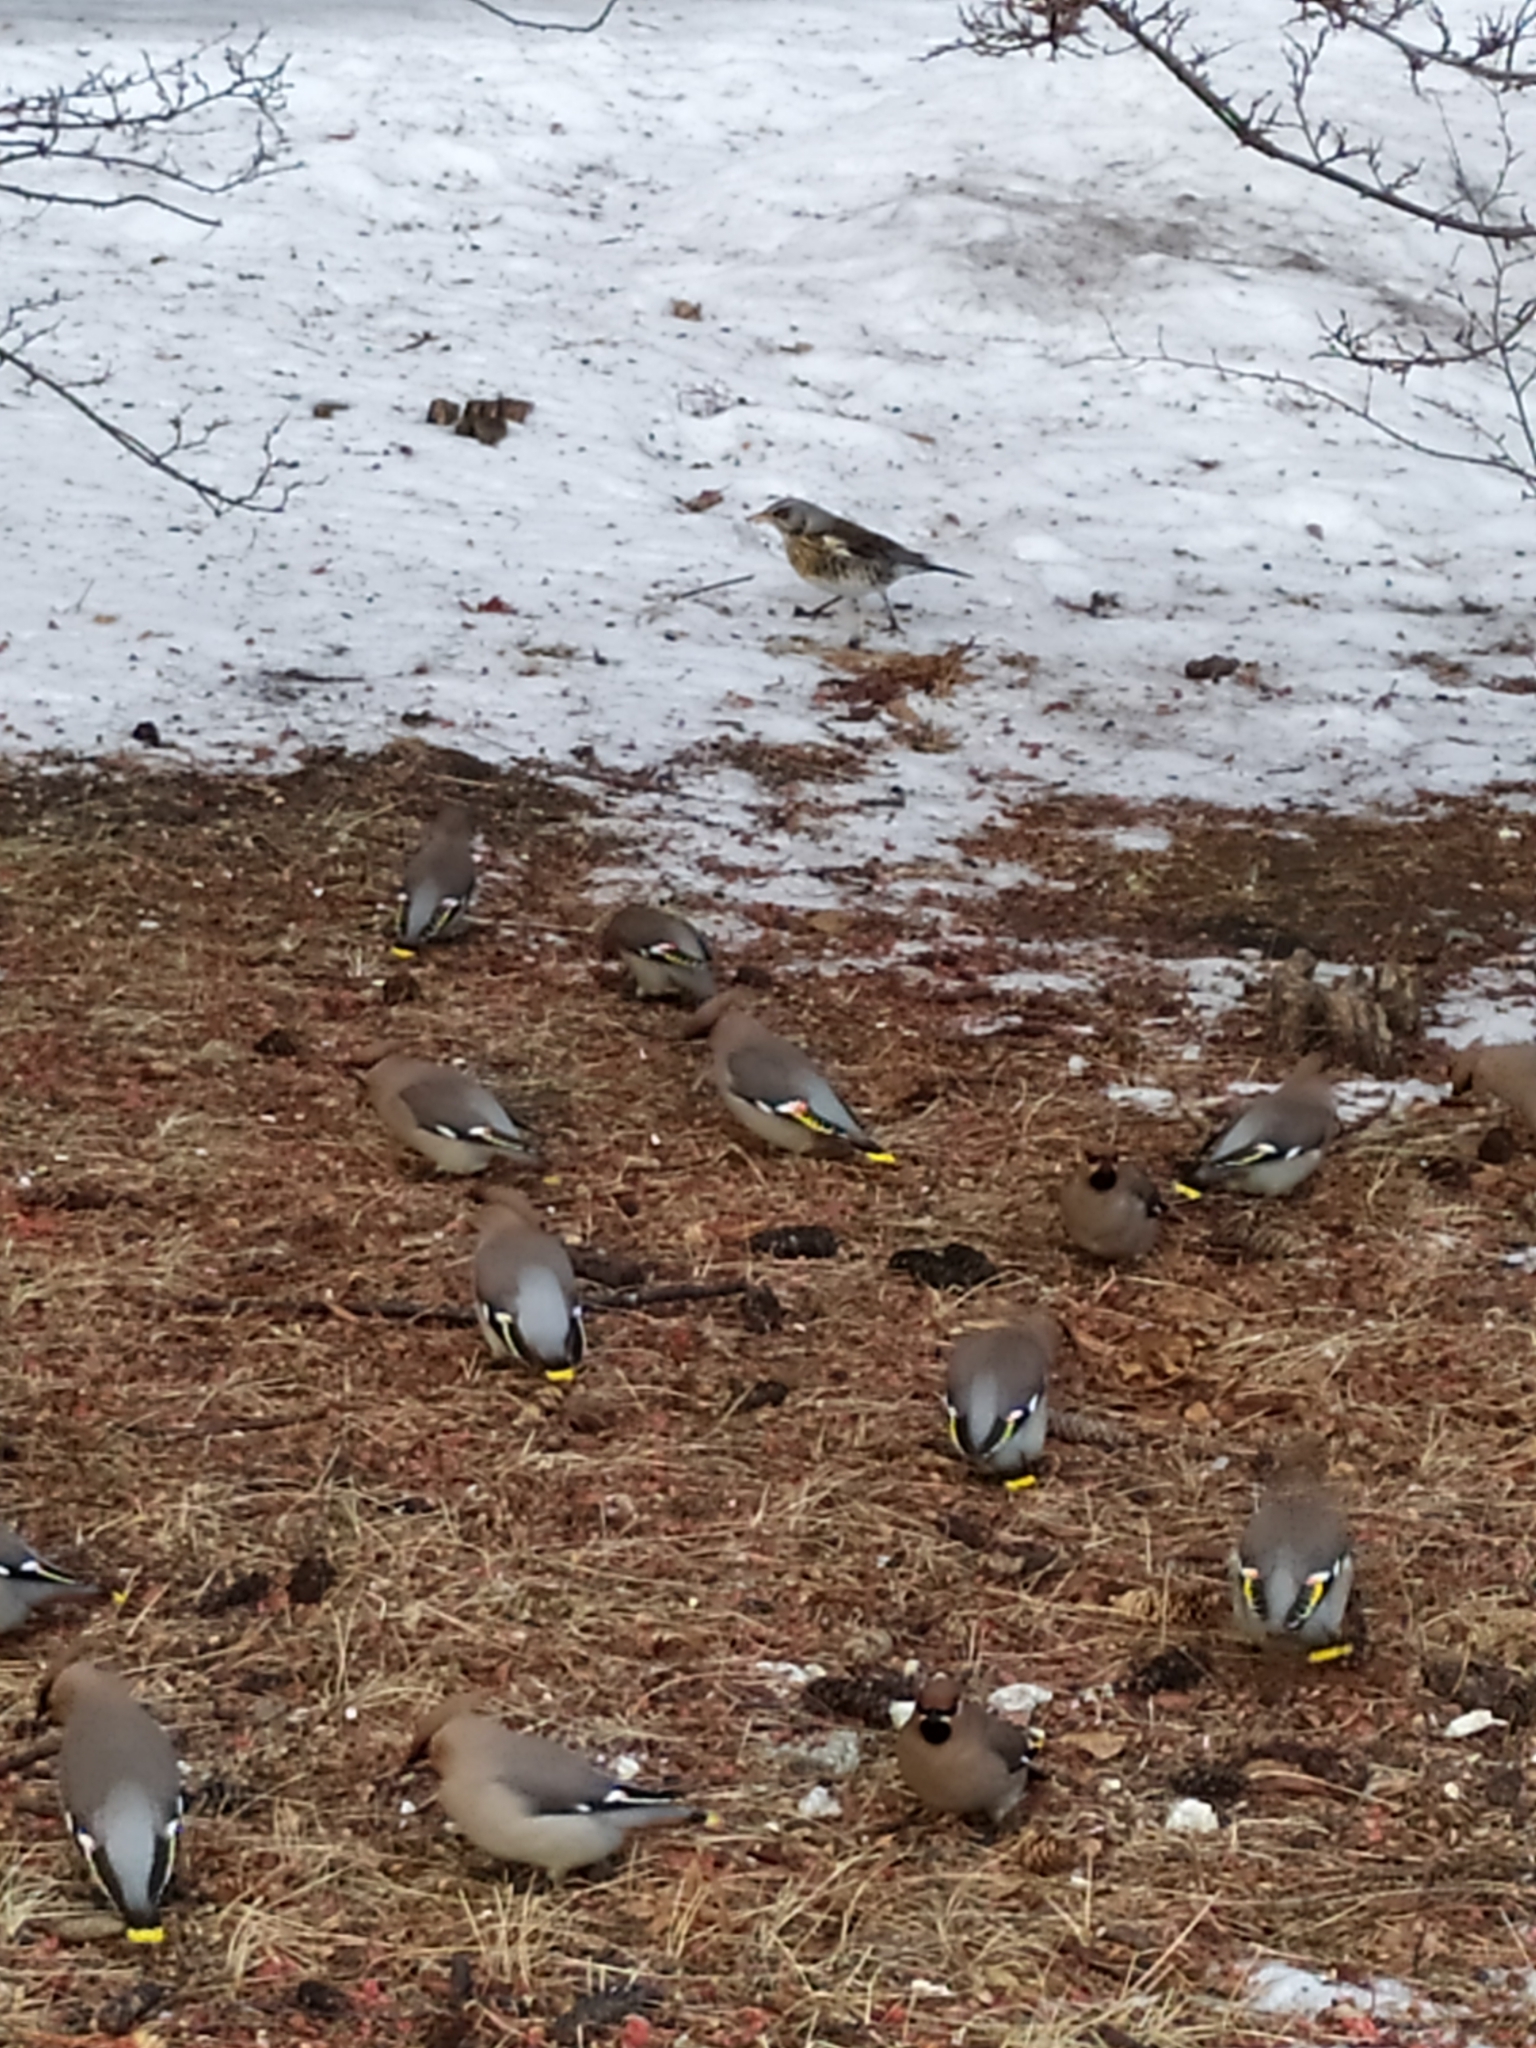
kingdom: Animalia
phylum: Chordata
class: Aves
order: Passeriformes
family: Bombycillidae
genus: Bombycilla
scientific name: Bombycilla garrulus
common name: Bohemian waxwing
